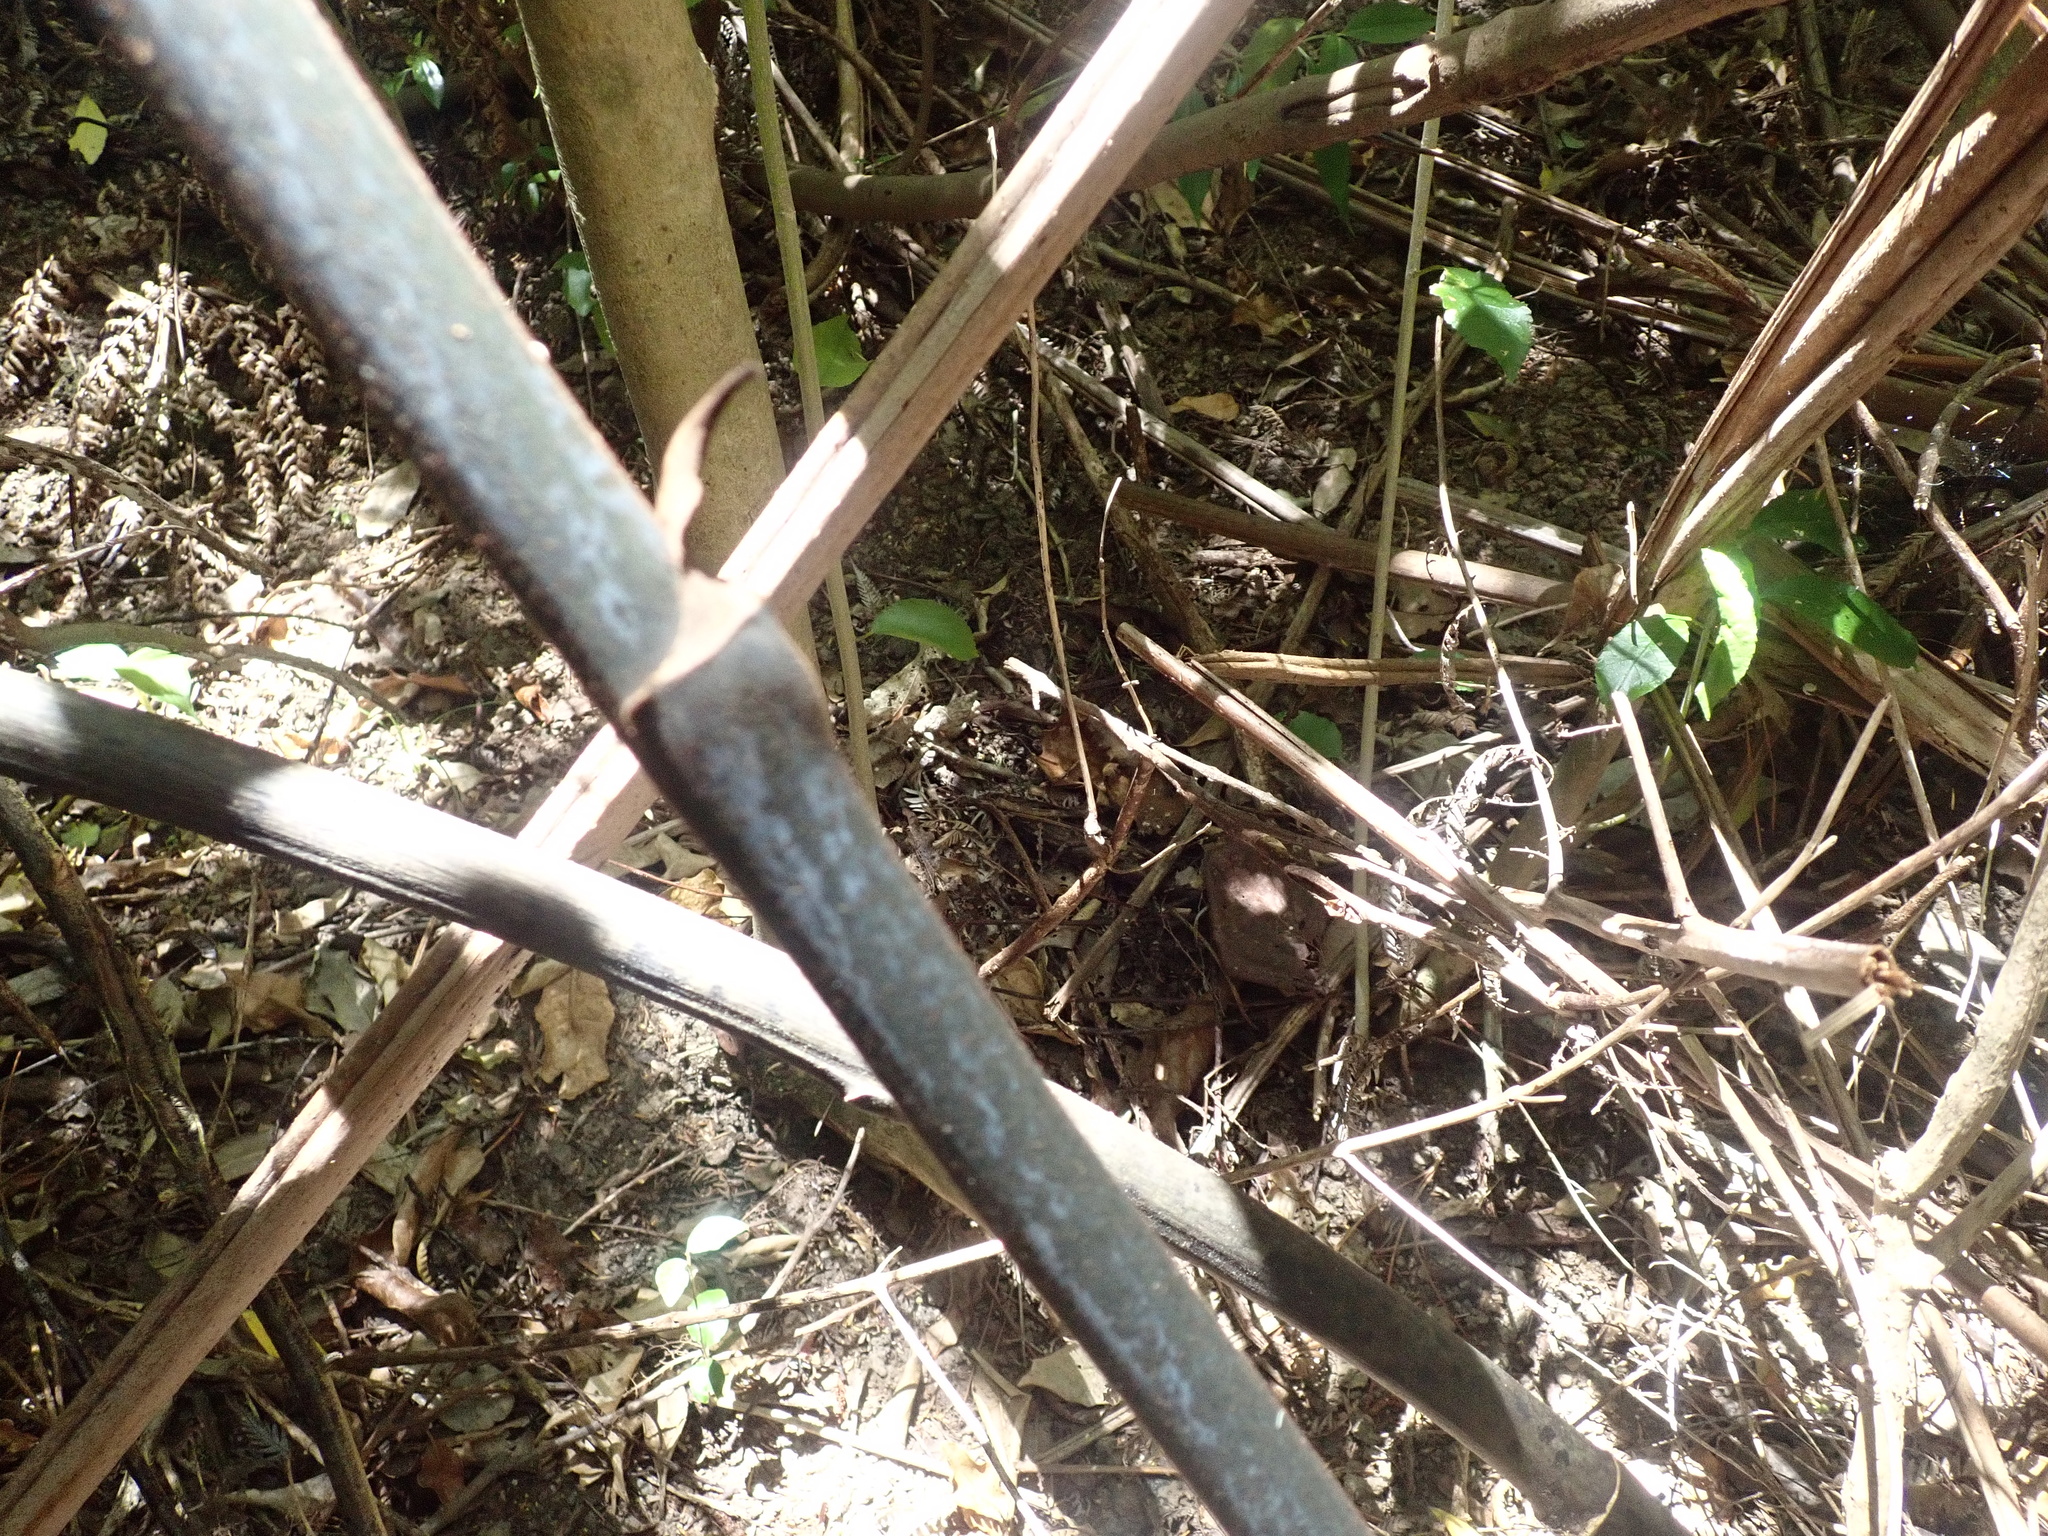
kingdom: Plantae
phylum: Tracheophyta
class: Liliopsida
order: Liliales
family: Ripogonaceae
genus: Ripogonum
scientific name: Ripogonum scandens
